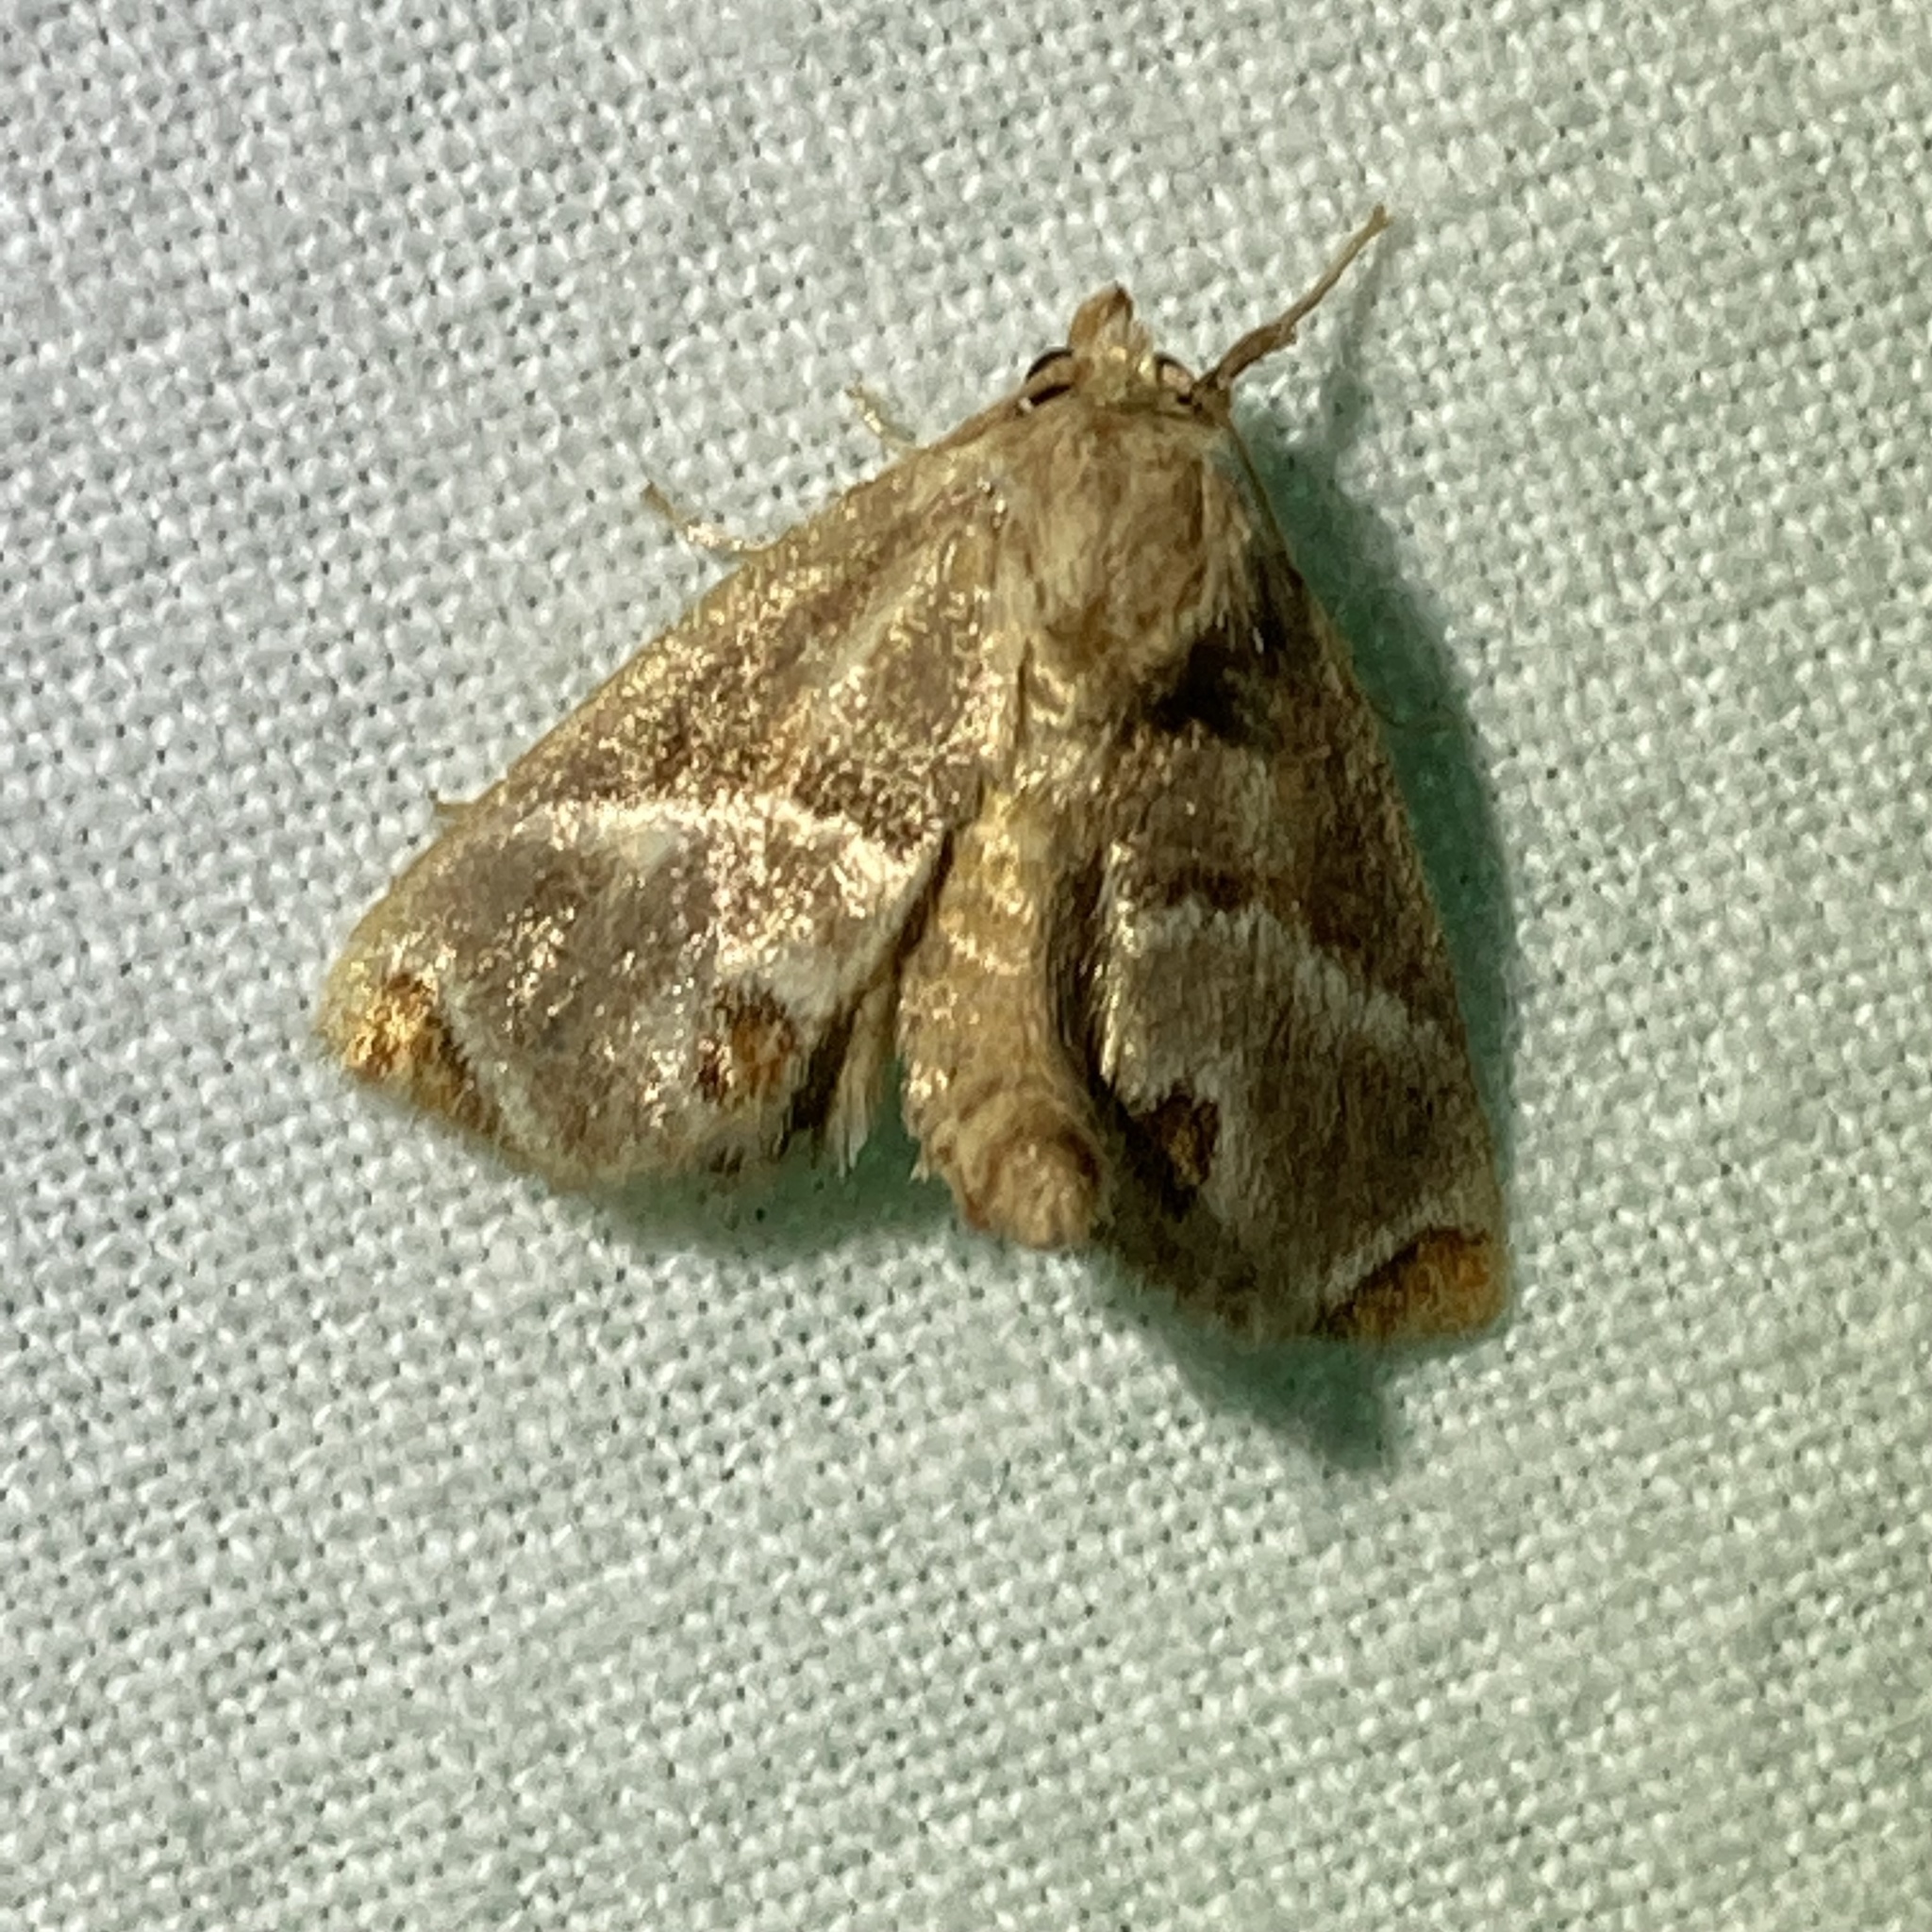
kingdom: Animalia
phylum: Arthropoda
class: Insecta
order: Lepidoptera
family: Limacodidae
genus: Apoda
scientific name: Apoda biguttata
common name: Shagreened slug moth
